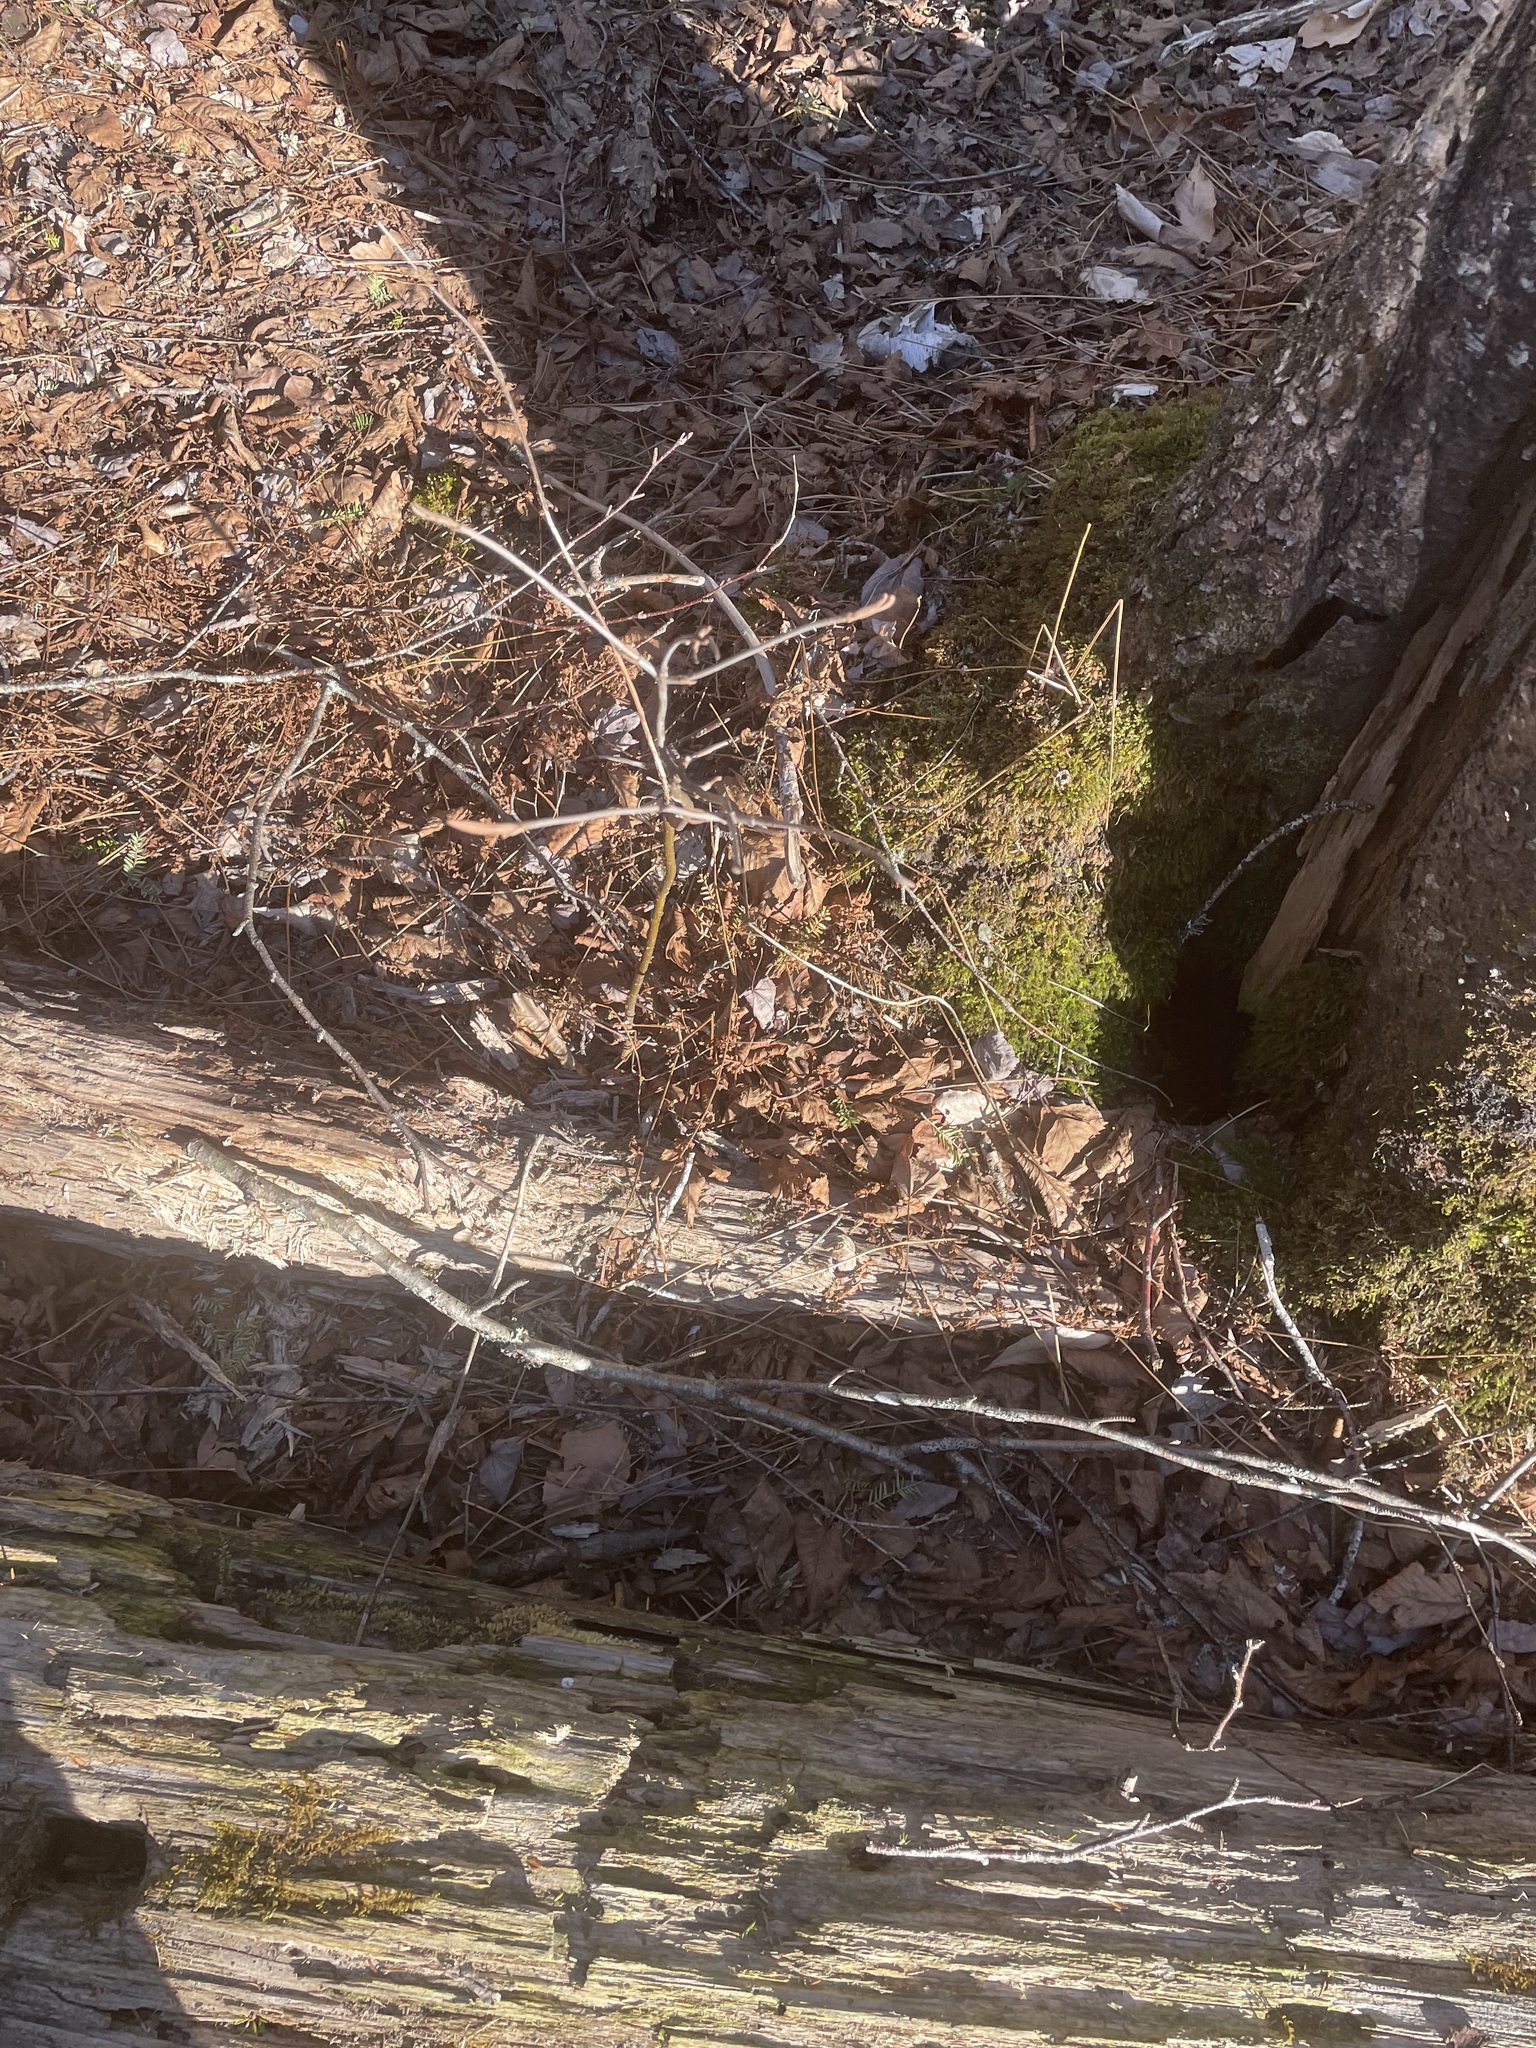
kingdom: Plantae
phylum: Tracheophyta
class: Magnoliopsida
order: Dipsacales
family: Viburnaceae
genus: Viburnum
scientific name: Viburnum cassinoides
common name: Swamp haw
